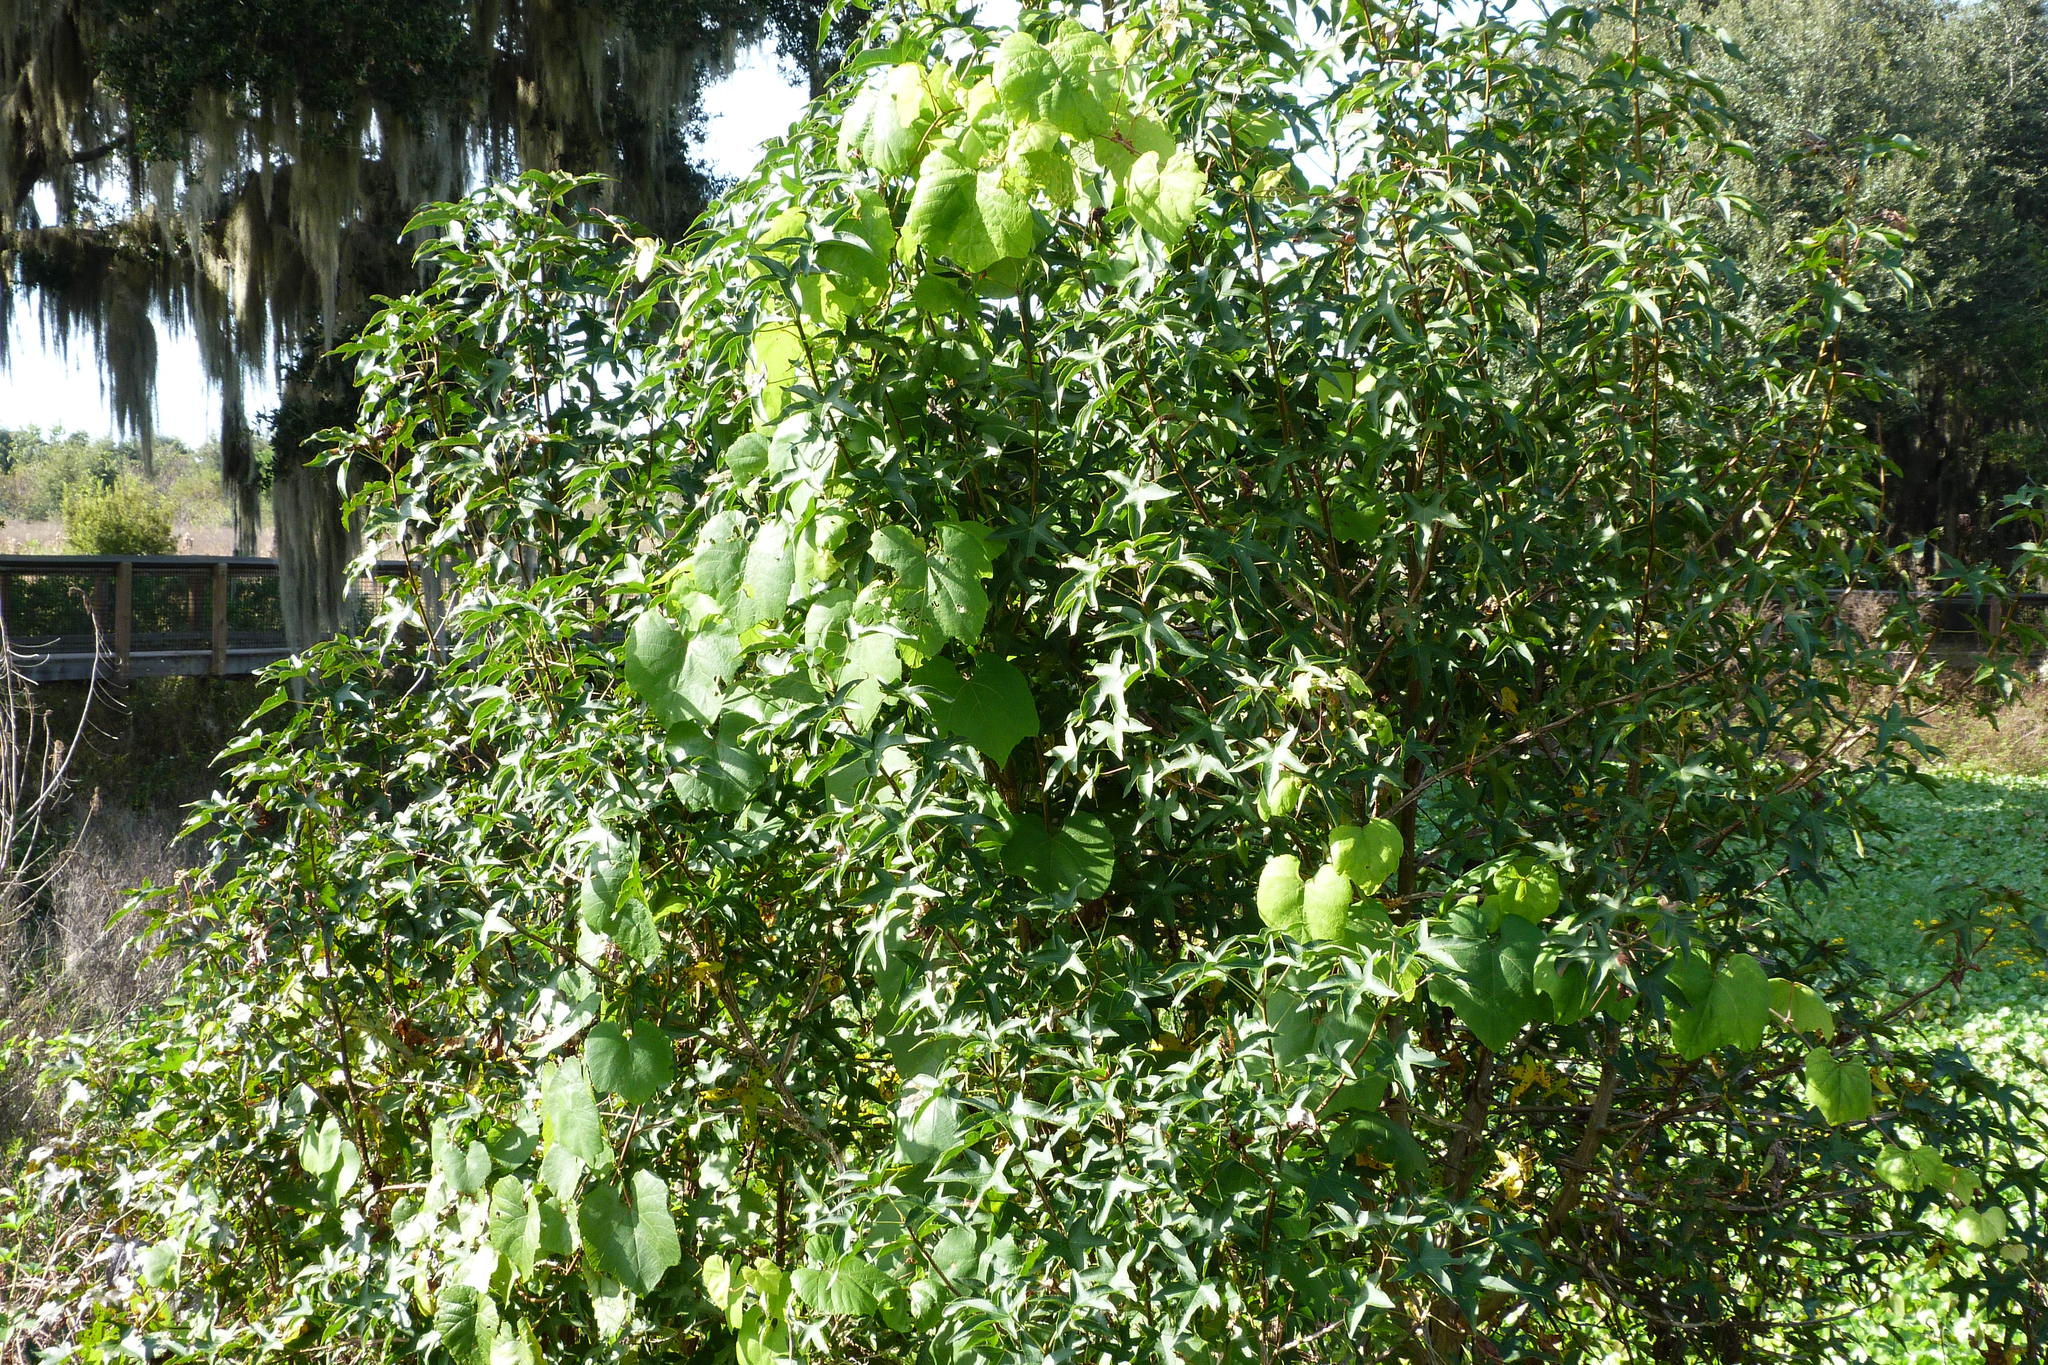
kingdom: Plantae
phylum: Tracheophyta
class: Magnoliopsida
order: Saxifragales
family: Altingiaceae
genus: Liquidambar
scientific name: Liquidambar styraciflua
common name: Sweet gum
